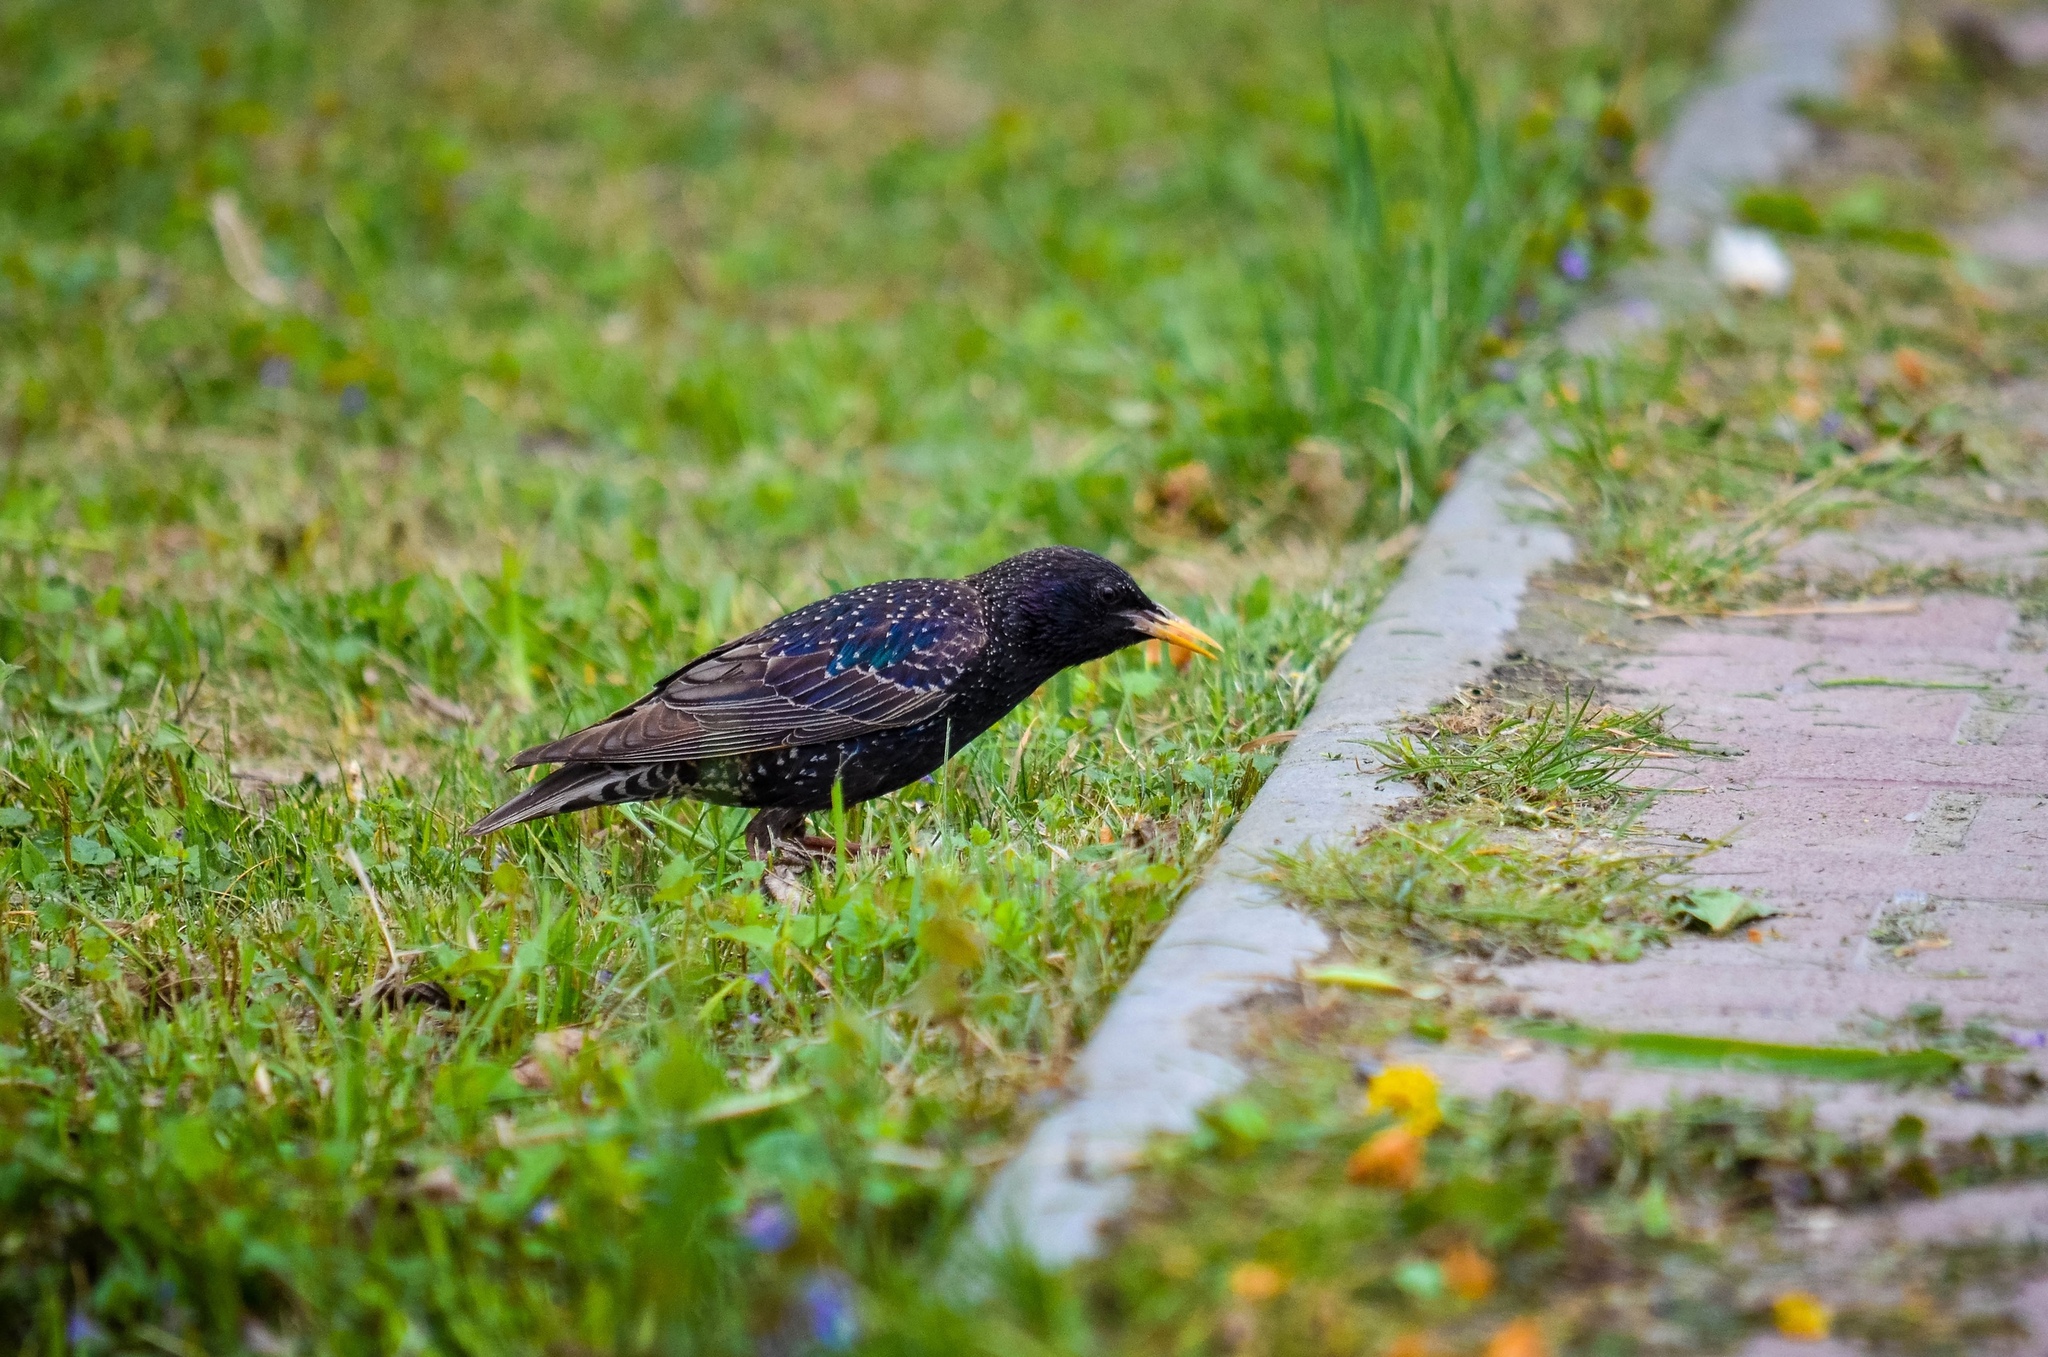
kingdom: Animalia
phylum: Chordata
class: Aves
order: Passeriformes
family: Sturnidae
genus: Sturnus
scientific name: Sturnus vulgaris
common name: Common starling
